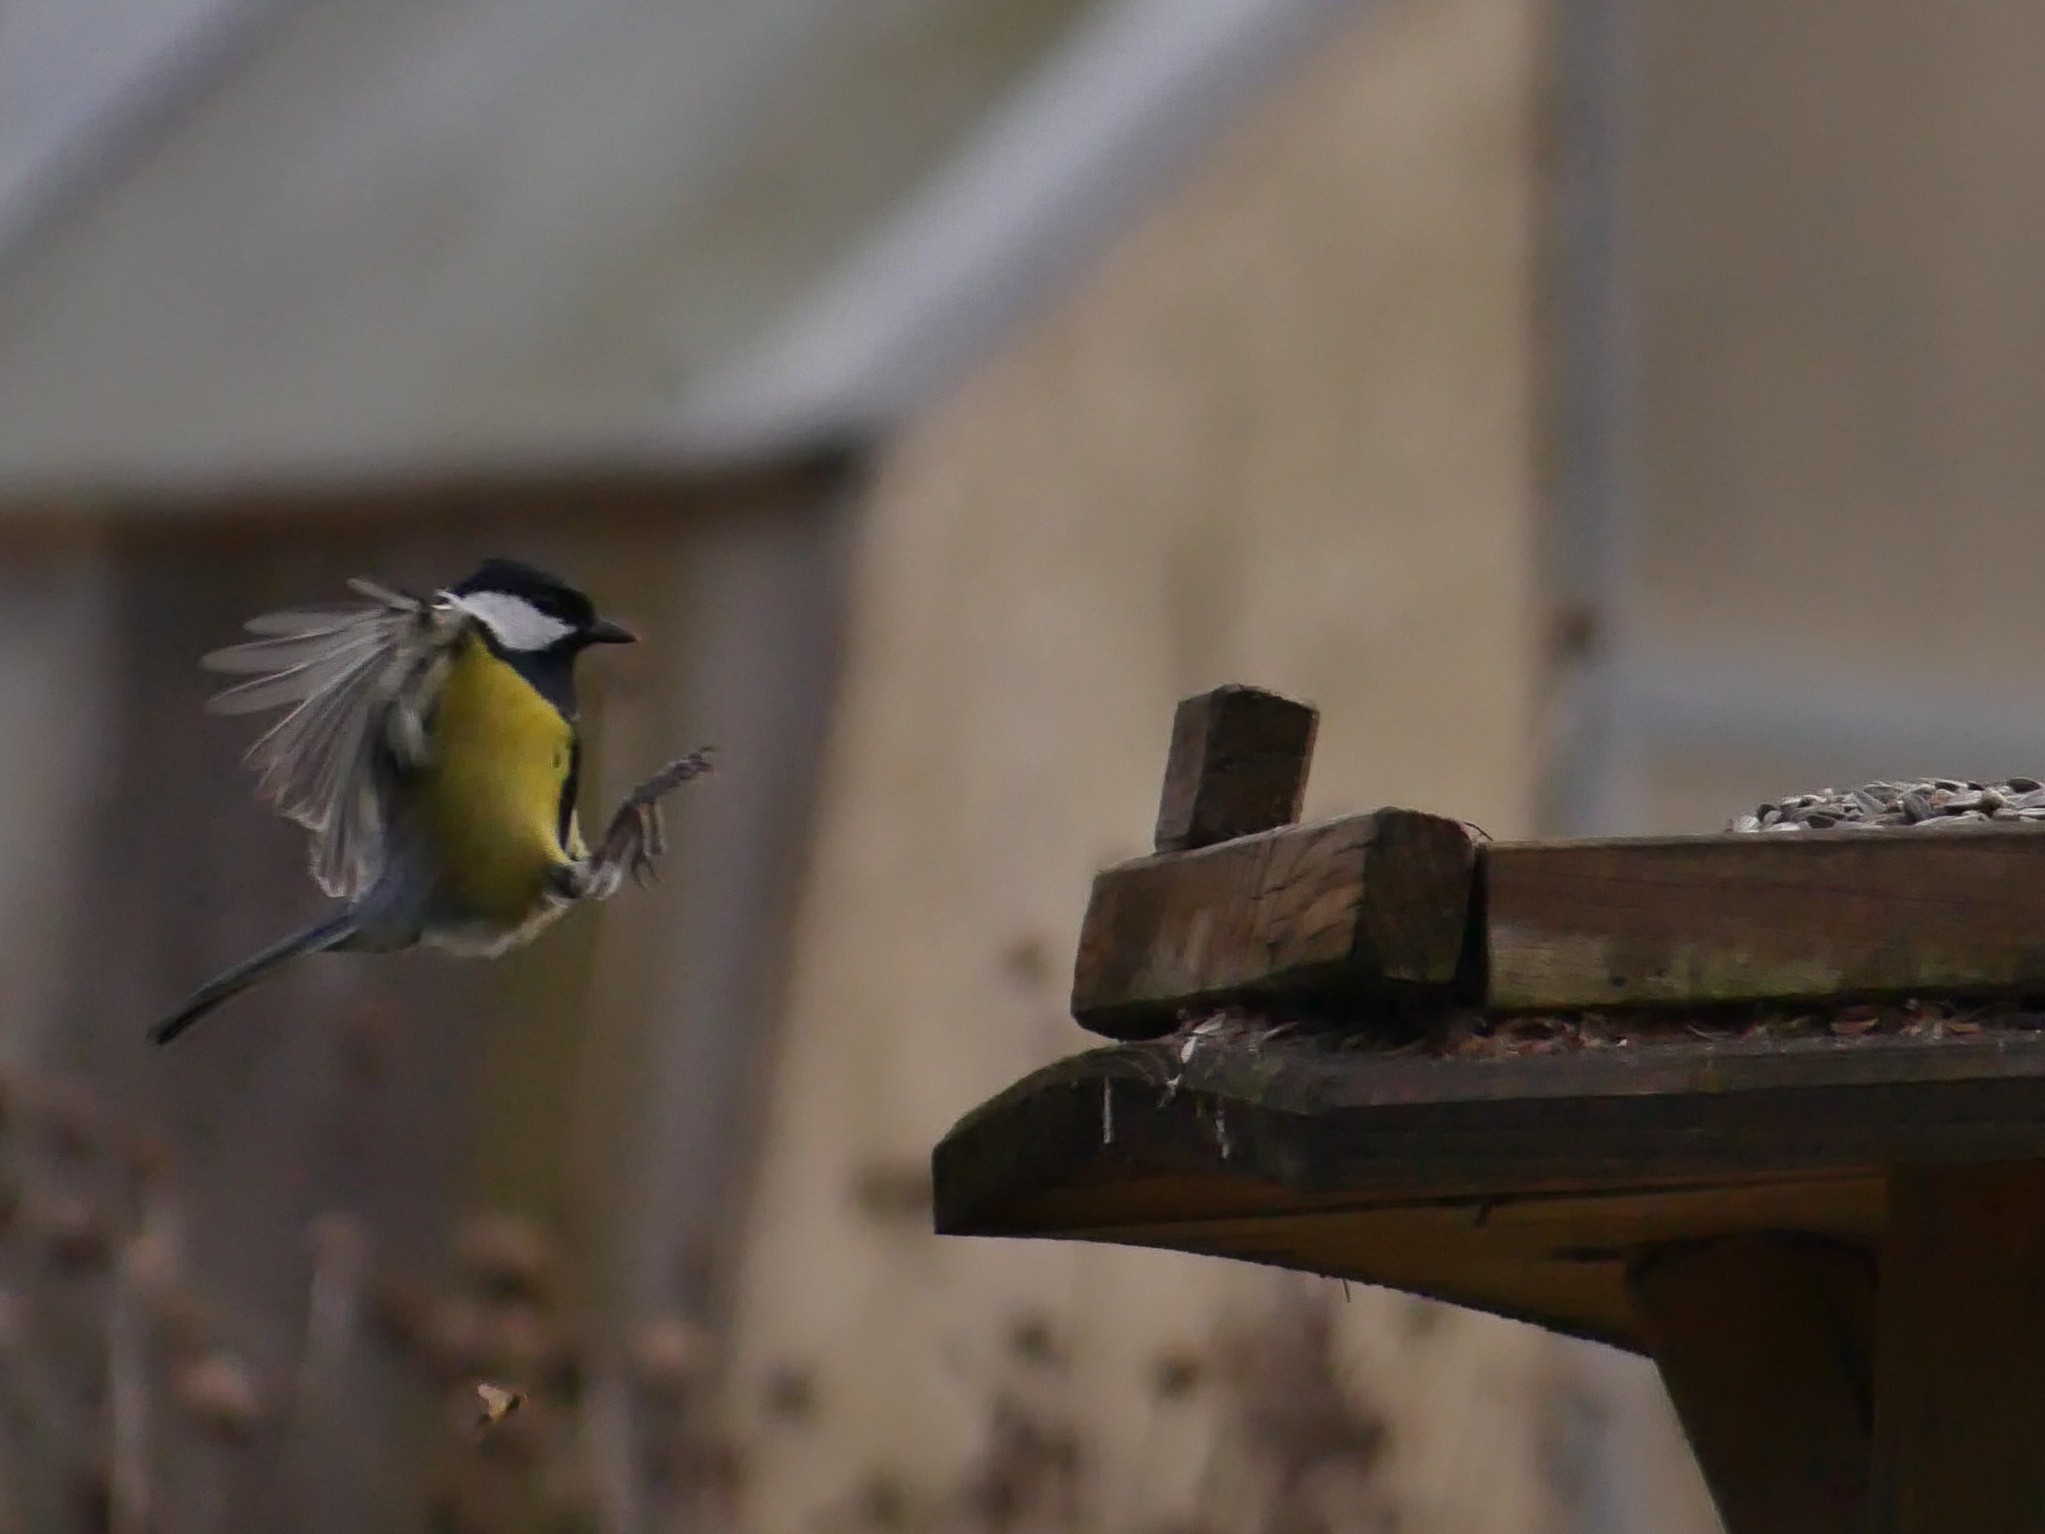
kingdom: Animalia
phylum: Chordata
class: Aves
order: Passeriformes
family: Paridae
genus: Parus
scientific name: Parus major
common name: Great tit
